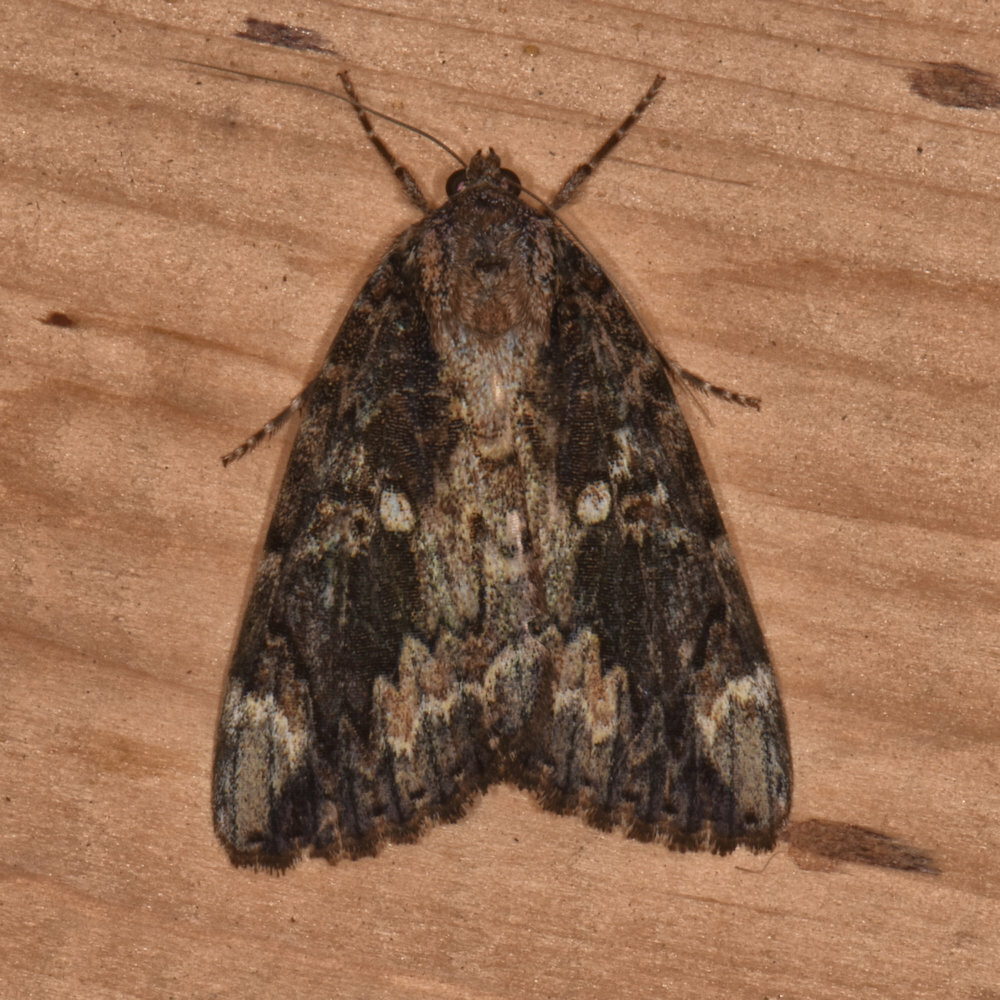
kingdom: Animalia
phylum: Arthropoda
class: Insecta
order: Lepidoptera
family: Erebidae
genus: Catocala
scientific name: Catocala innubens
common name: Betrothed underwing
